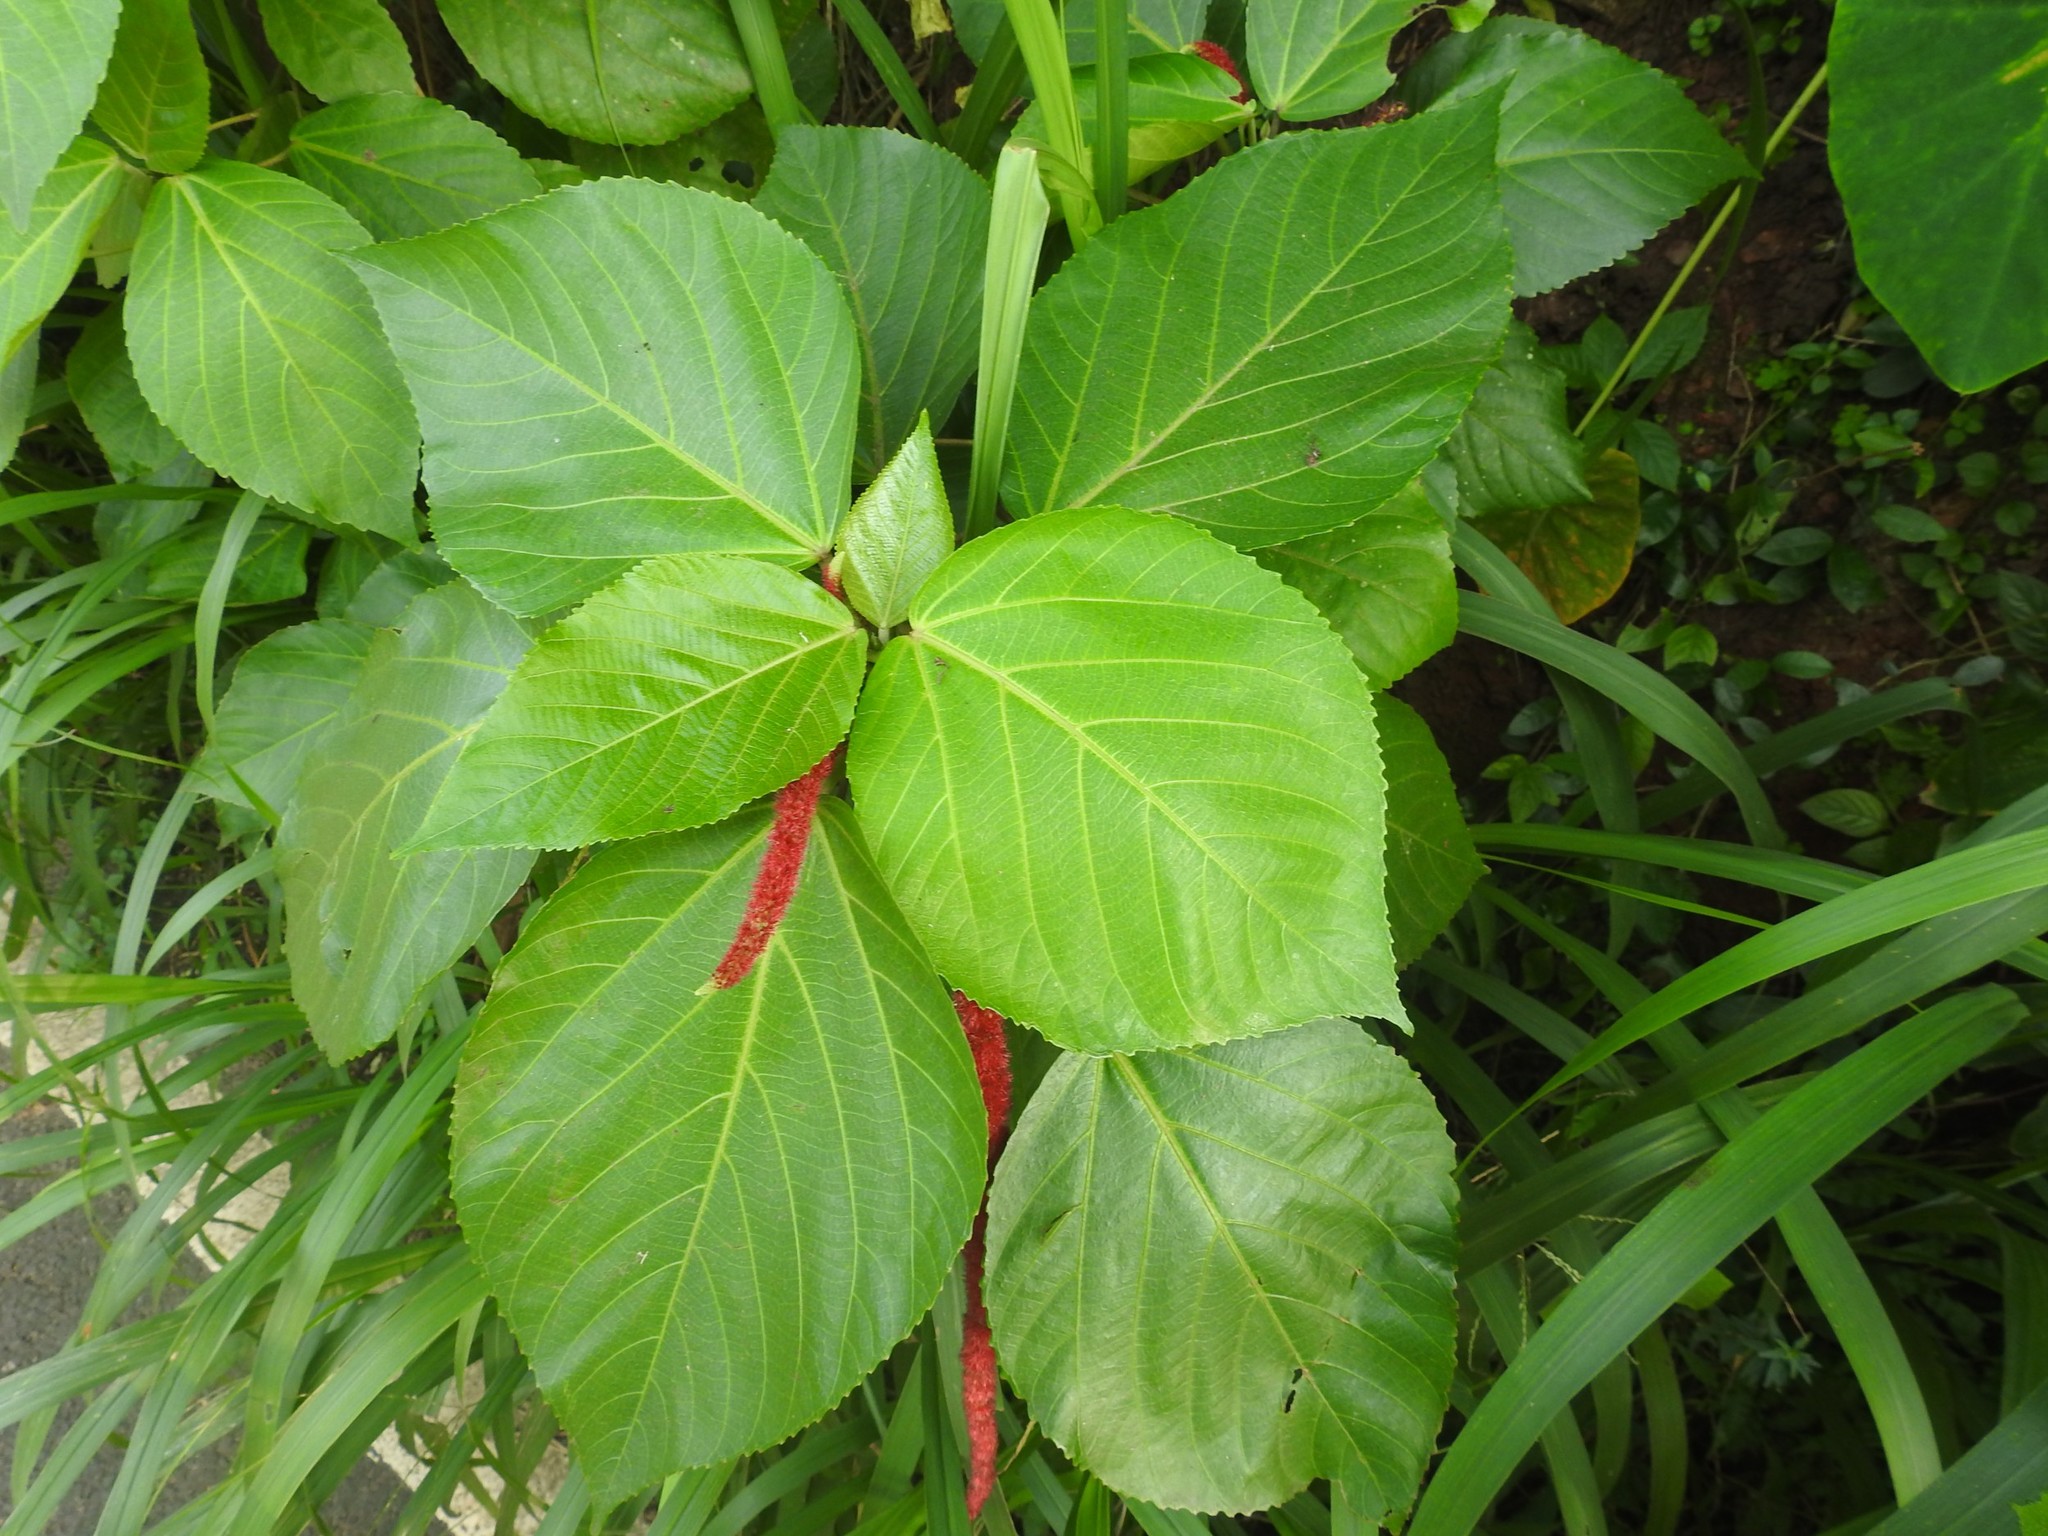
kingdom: Plantae
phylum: Tracheophyta
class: Magnoliopsida
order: Malpighiales
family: Euphorbiaceae
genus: Acalypha
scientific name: Acalypha hispida
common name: Chenilleplant
